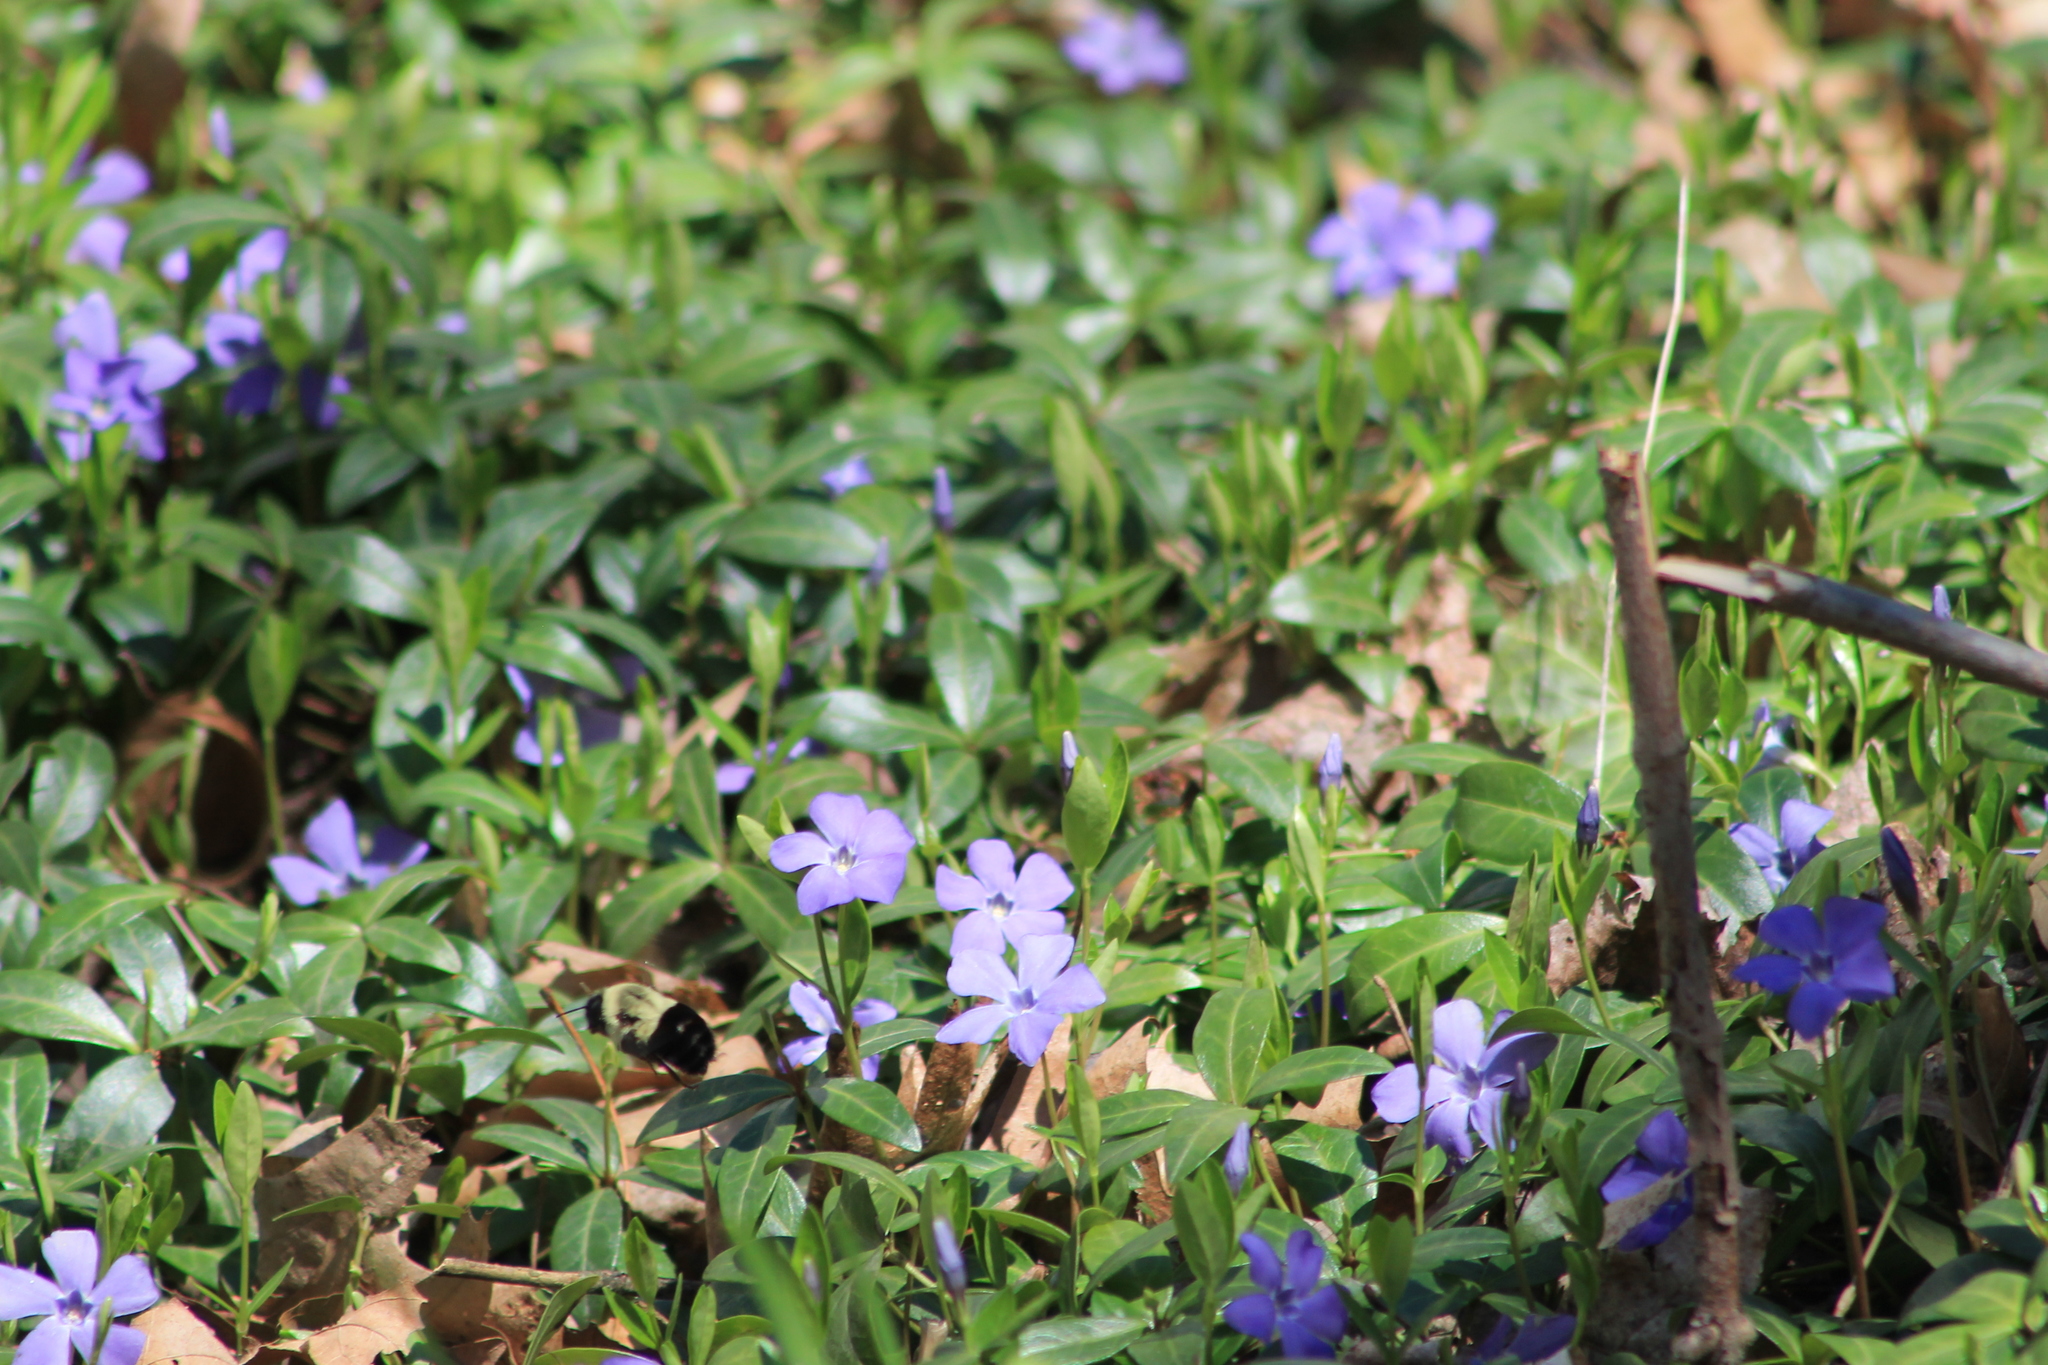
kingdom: Animalia
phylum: Arthropoda
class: Insecta
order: Hymenoptera
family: Apidae
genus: Bombus
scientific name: Bombus impatiens
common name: Common eastern bumble bee
